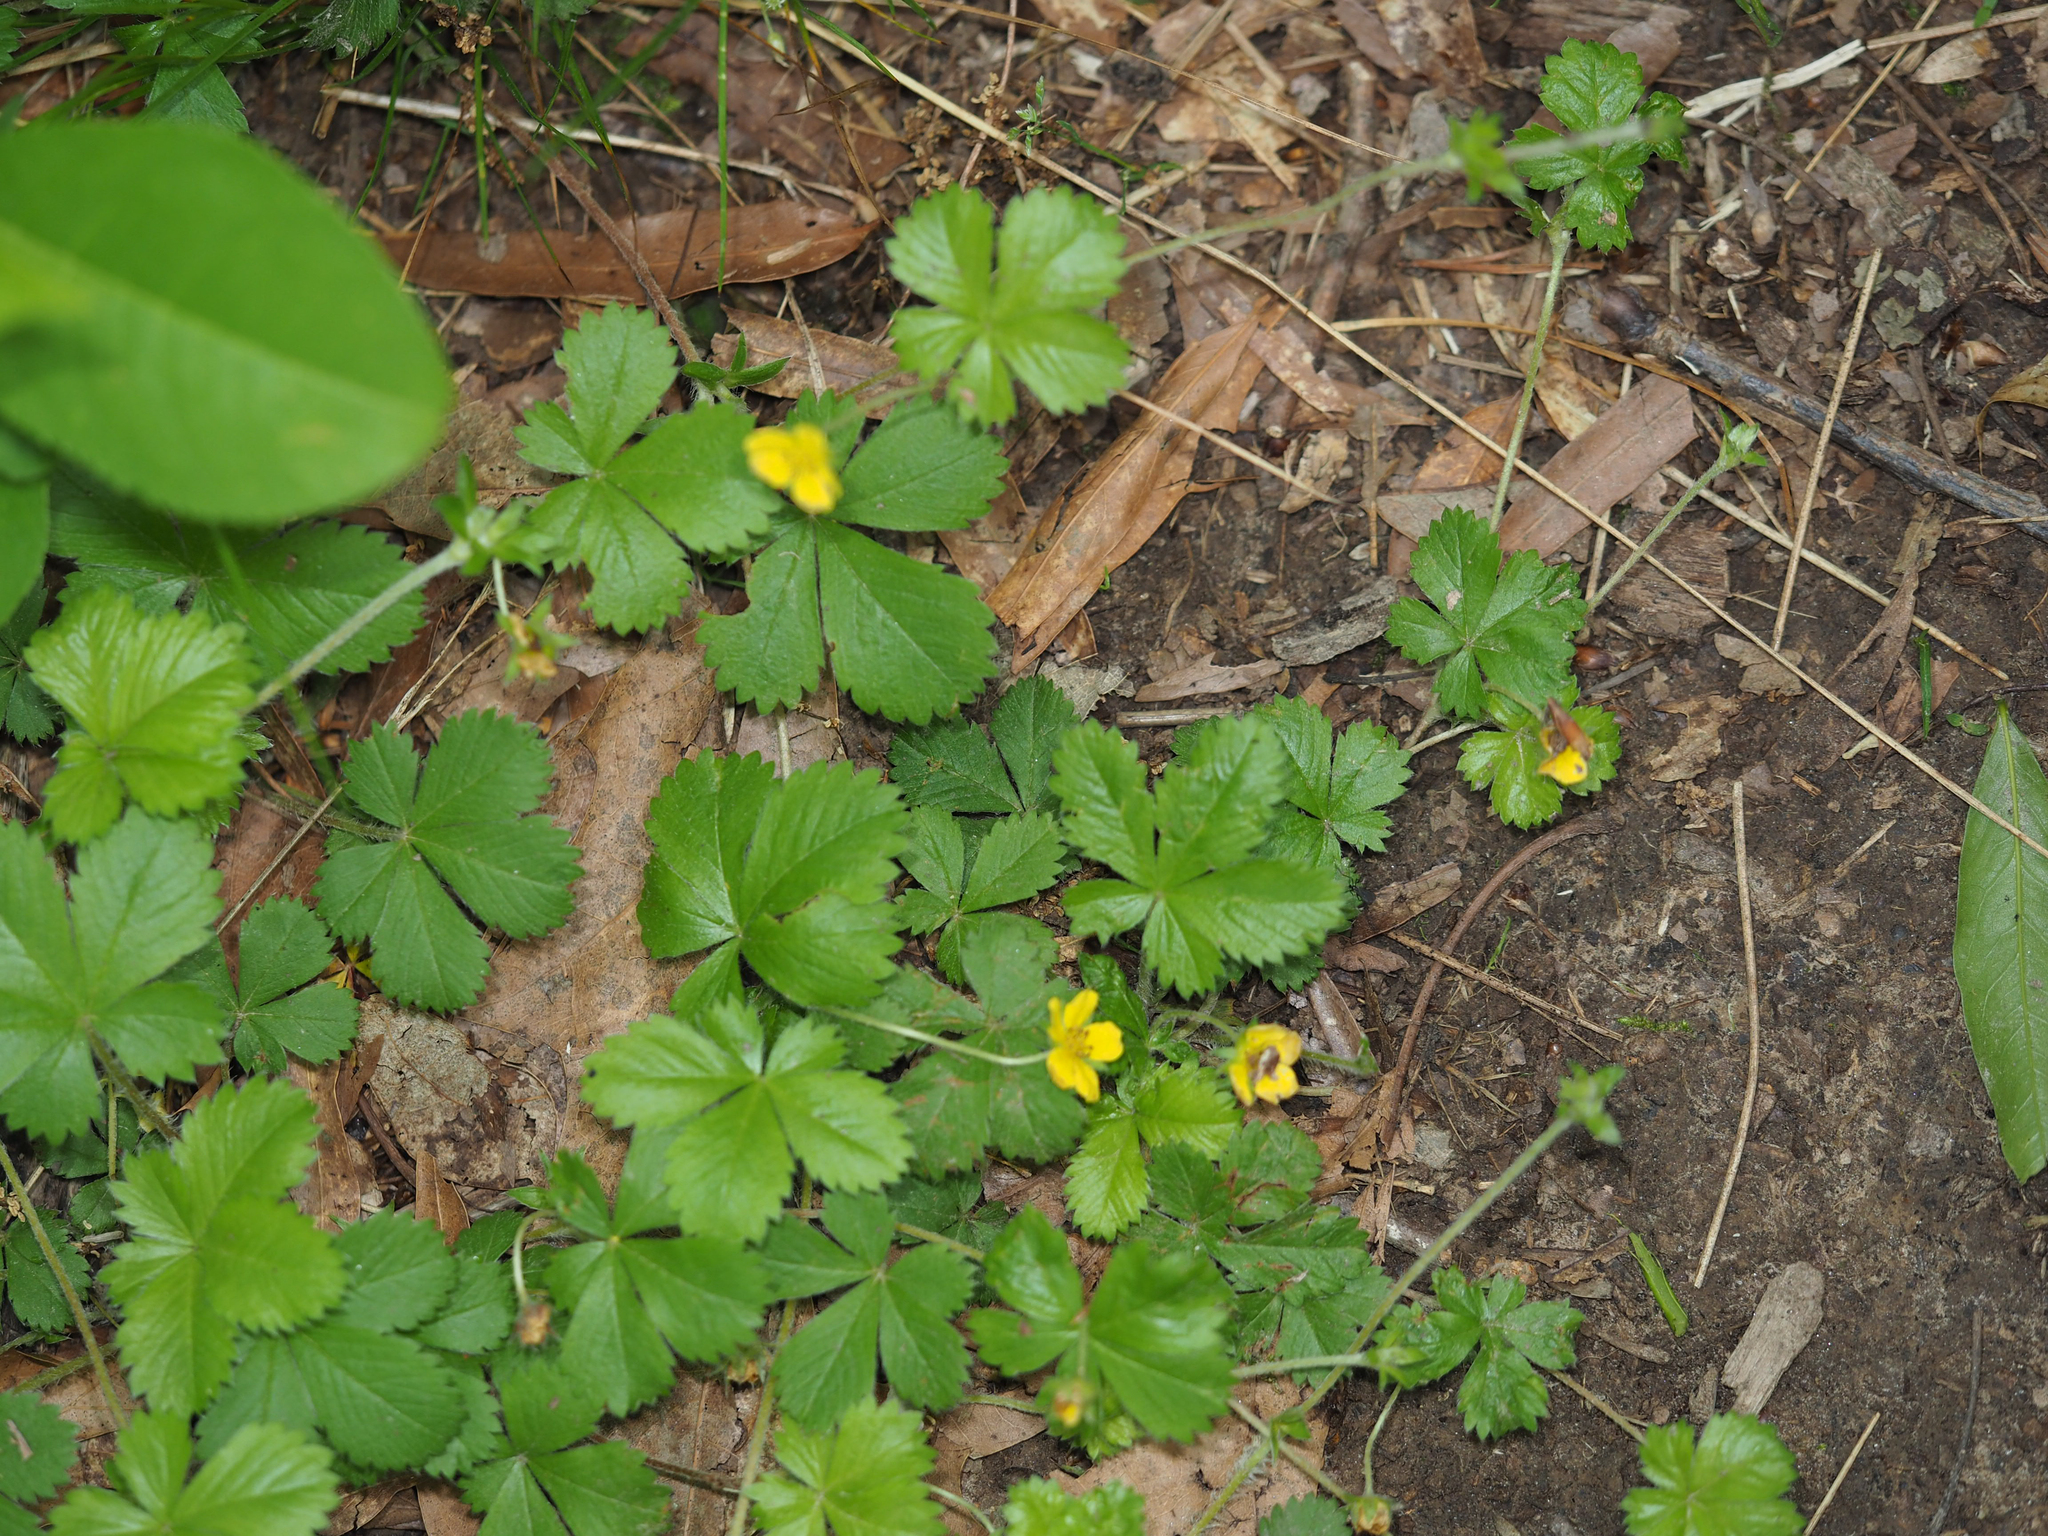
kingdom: Plantae
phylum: Tracheophyta
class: Magnoliopsida
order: Rosales
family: Rosaceae
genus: Potentilla
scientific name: Potentilla simplex
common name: Old field cinquefoil
